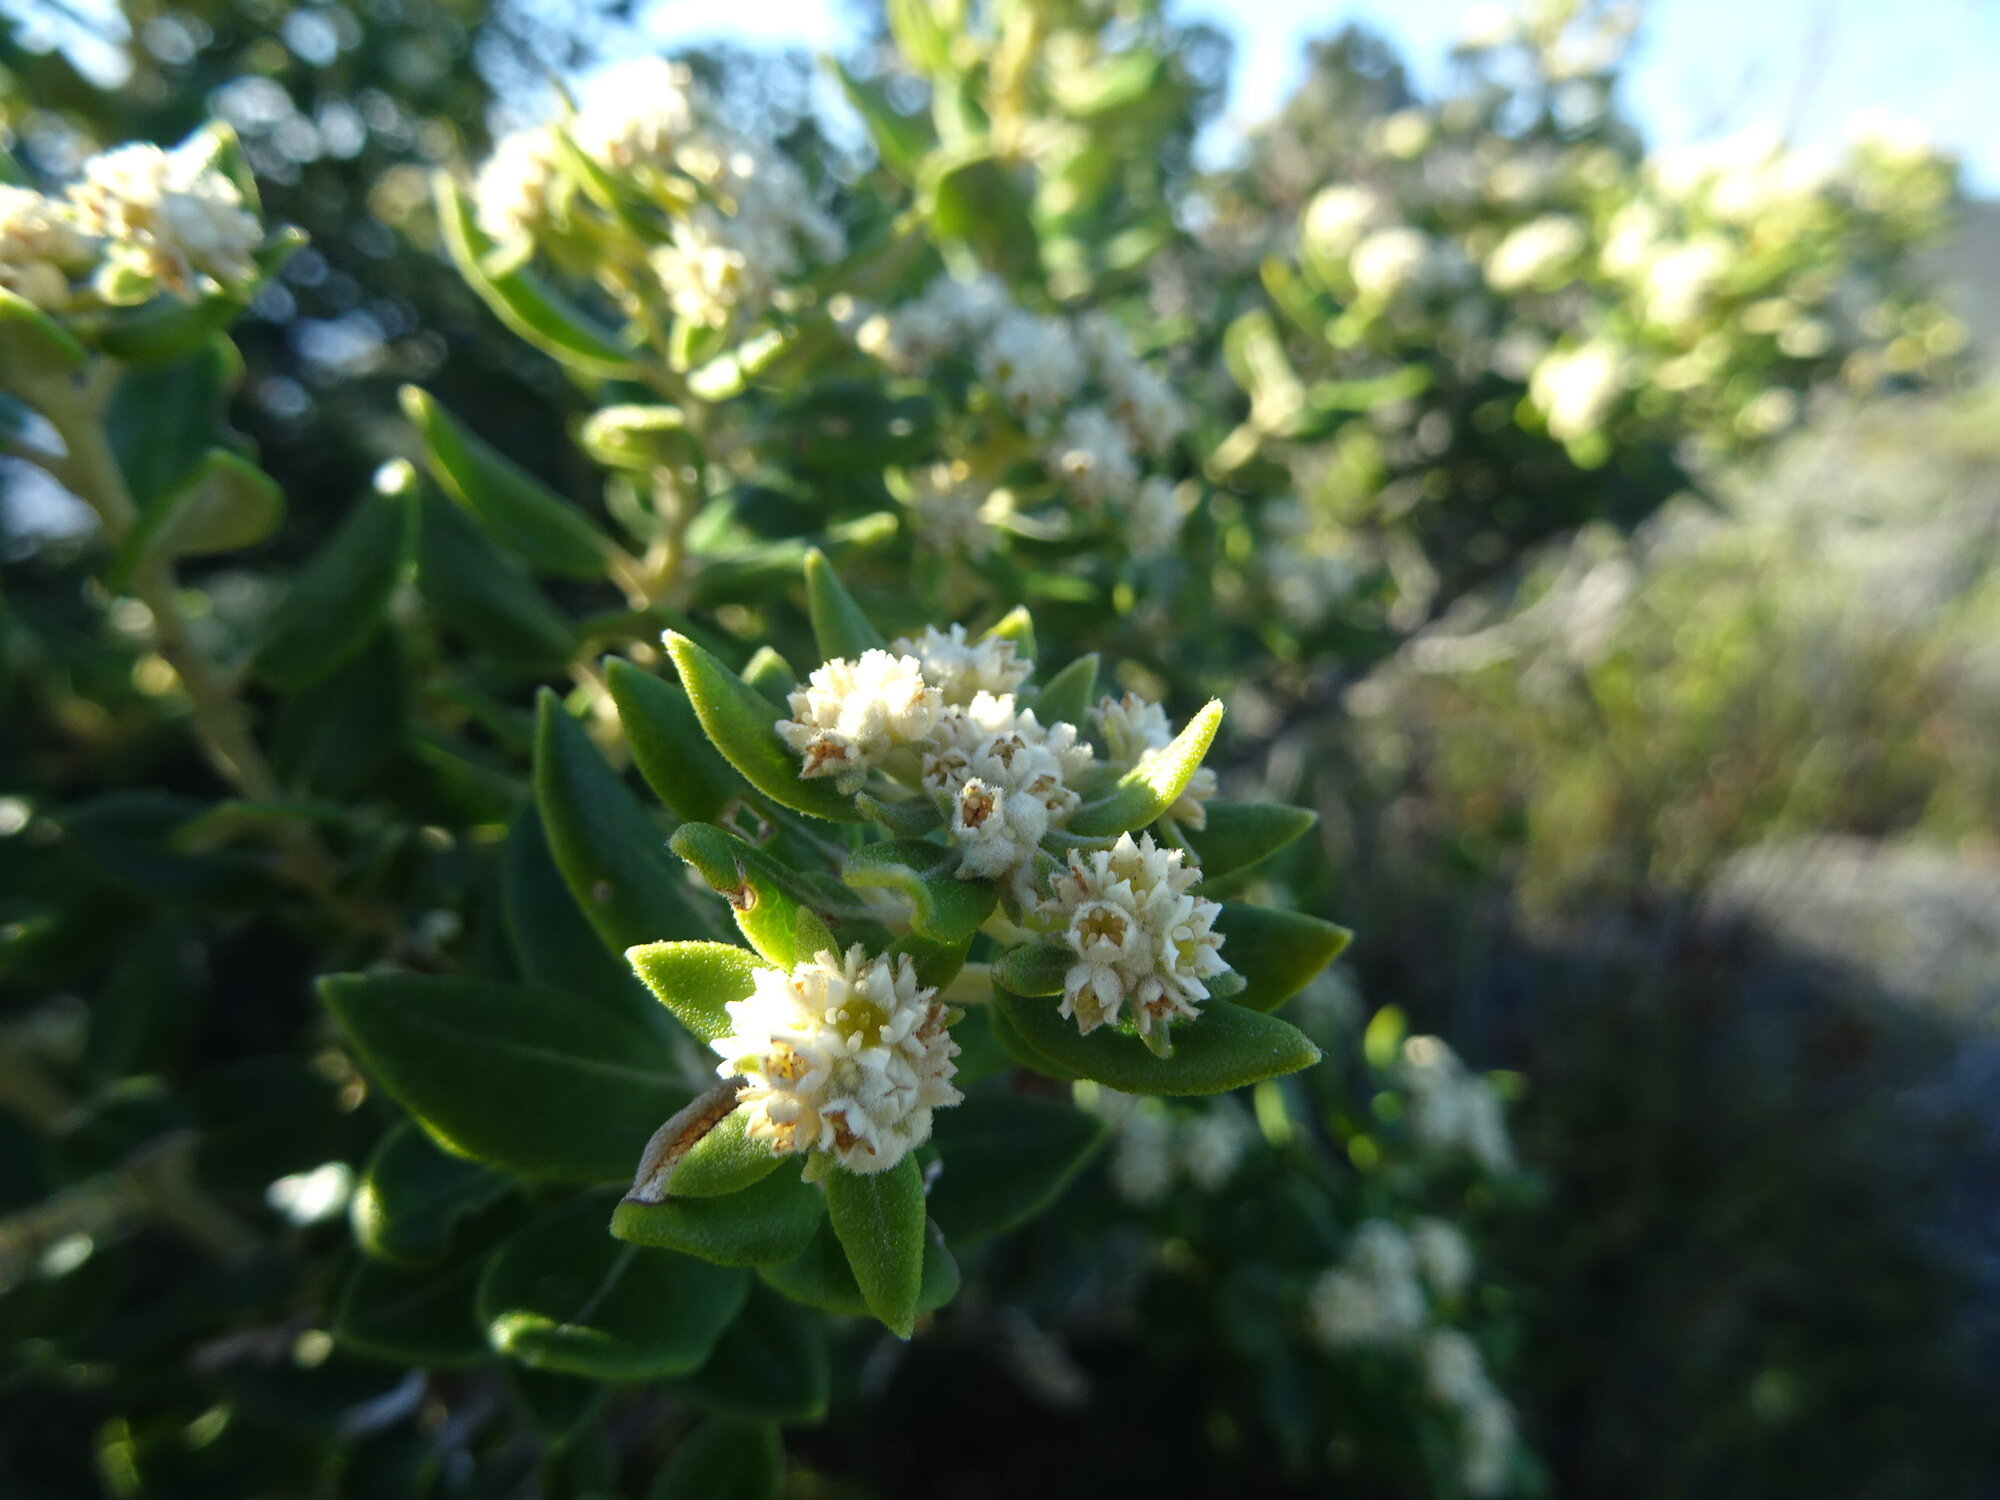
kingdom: Plantae
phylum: Tracheophyta
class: Magnoliopsida
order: Rosales
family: Rhamnaceae
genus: Phylica
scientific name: Phylica buxifolia
